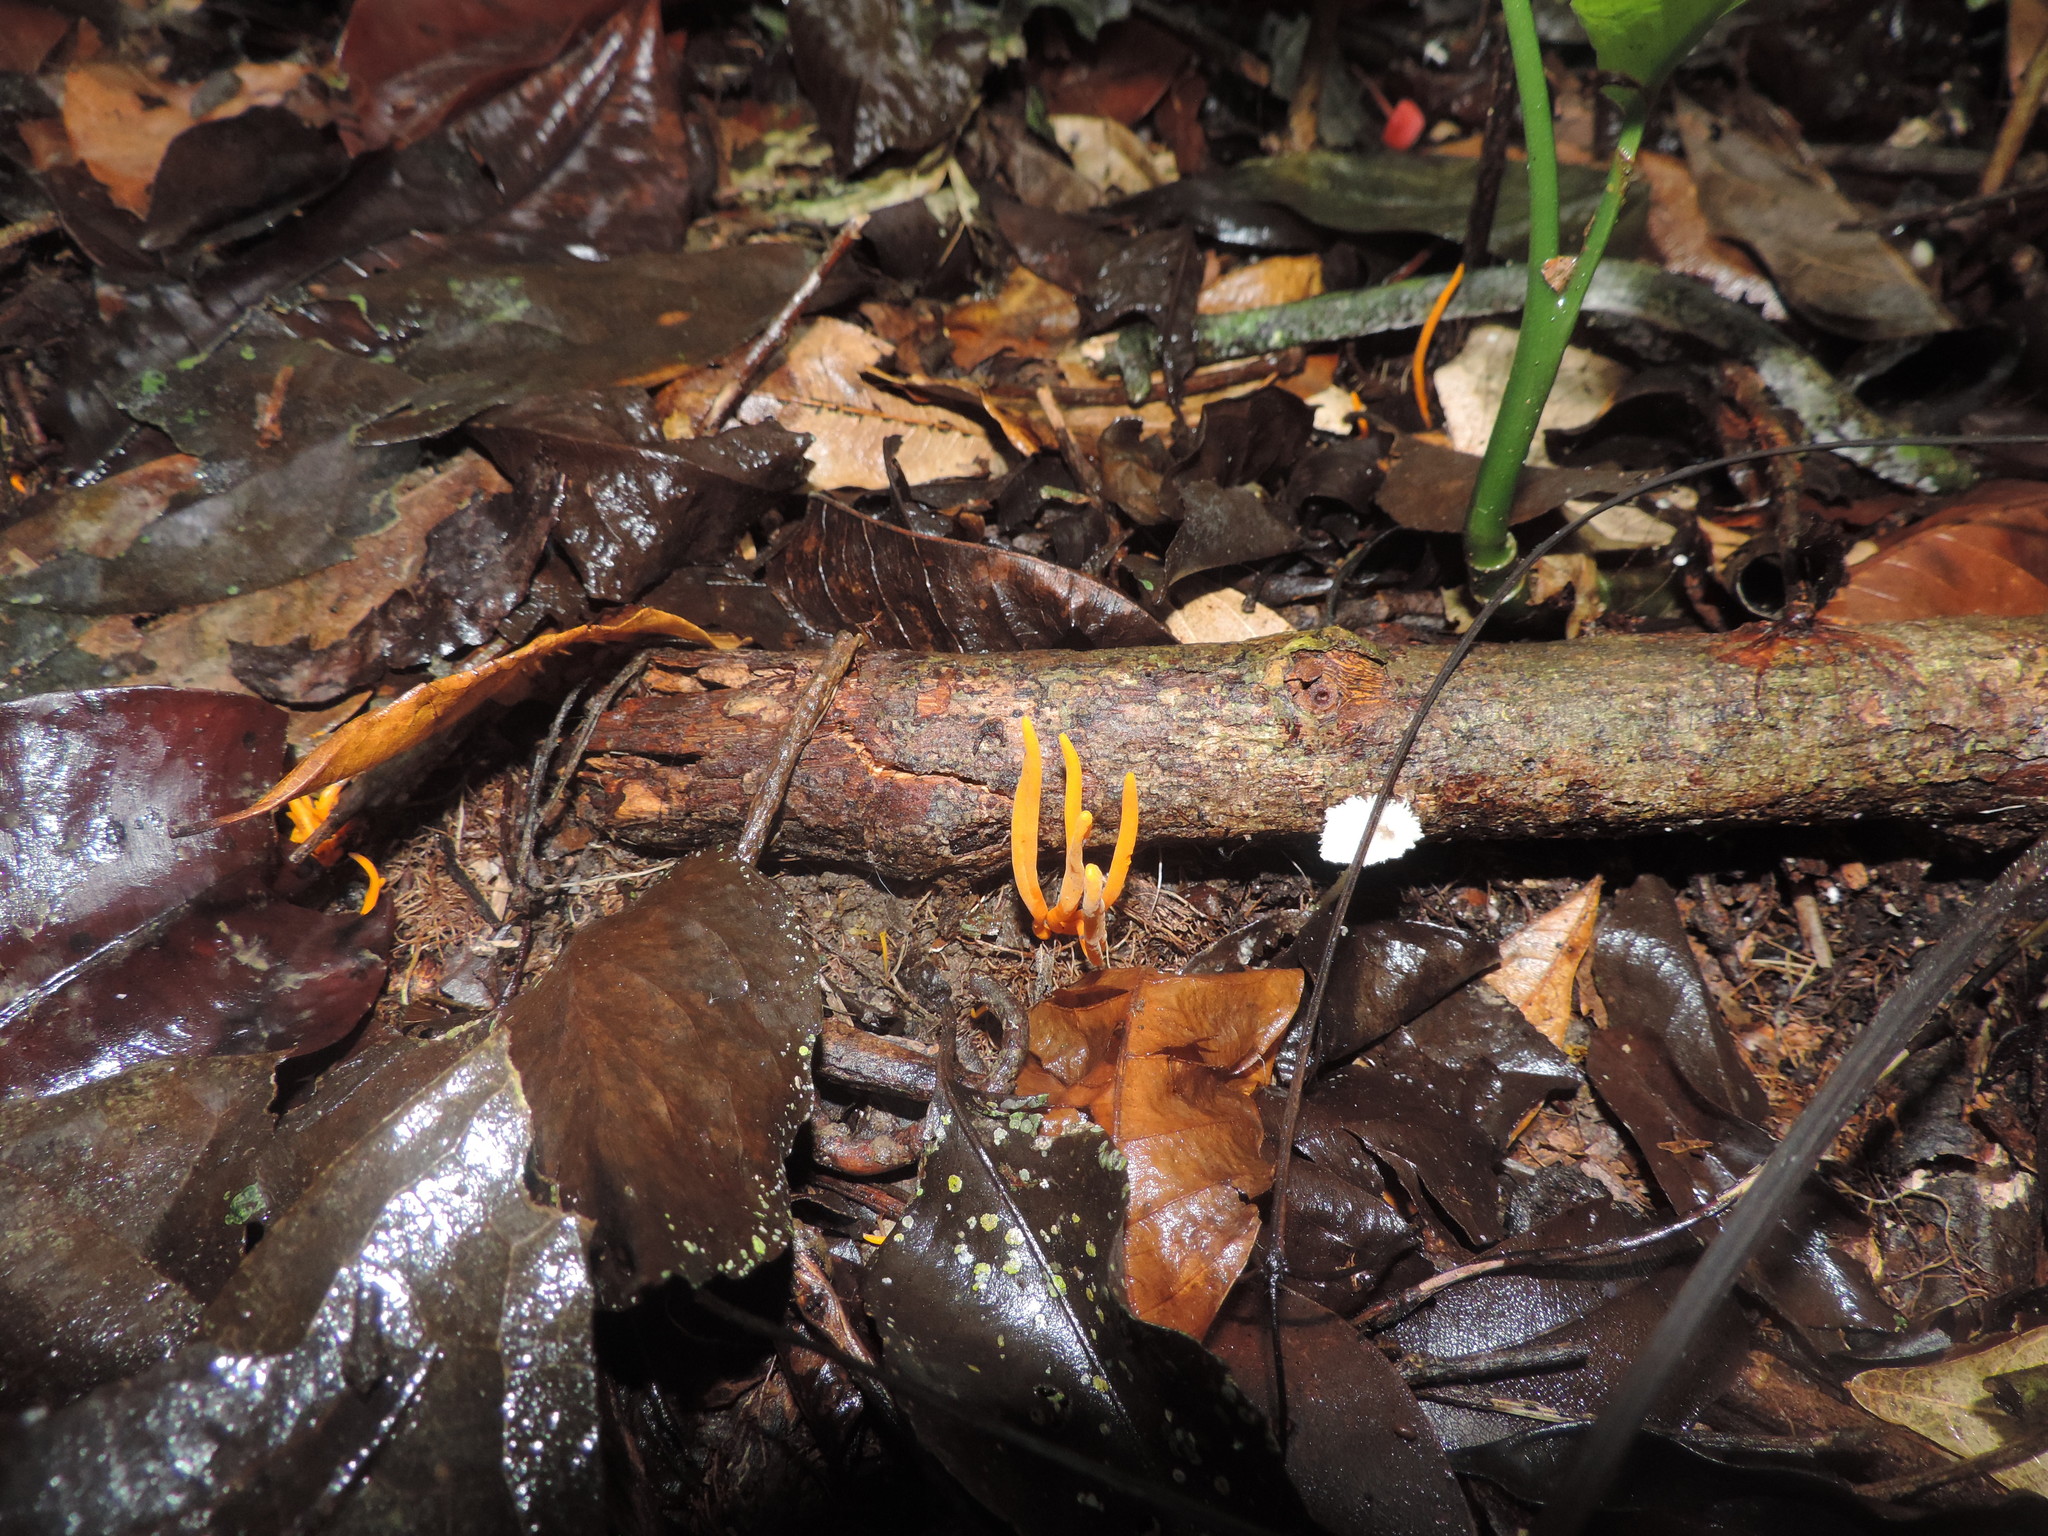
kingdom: Fungi
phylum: Basidiomycota
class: Agaricomycetes
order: Agaricales
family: Clavariaceae
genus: Clavulinopsis
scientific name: Clavulinopsis laeticolor
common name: Handsome club
